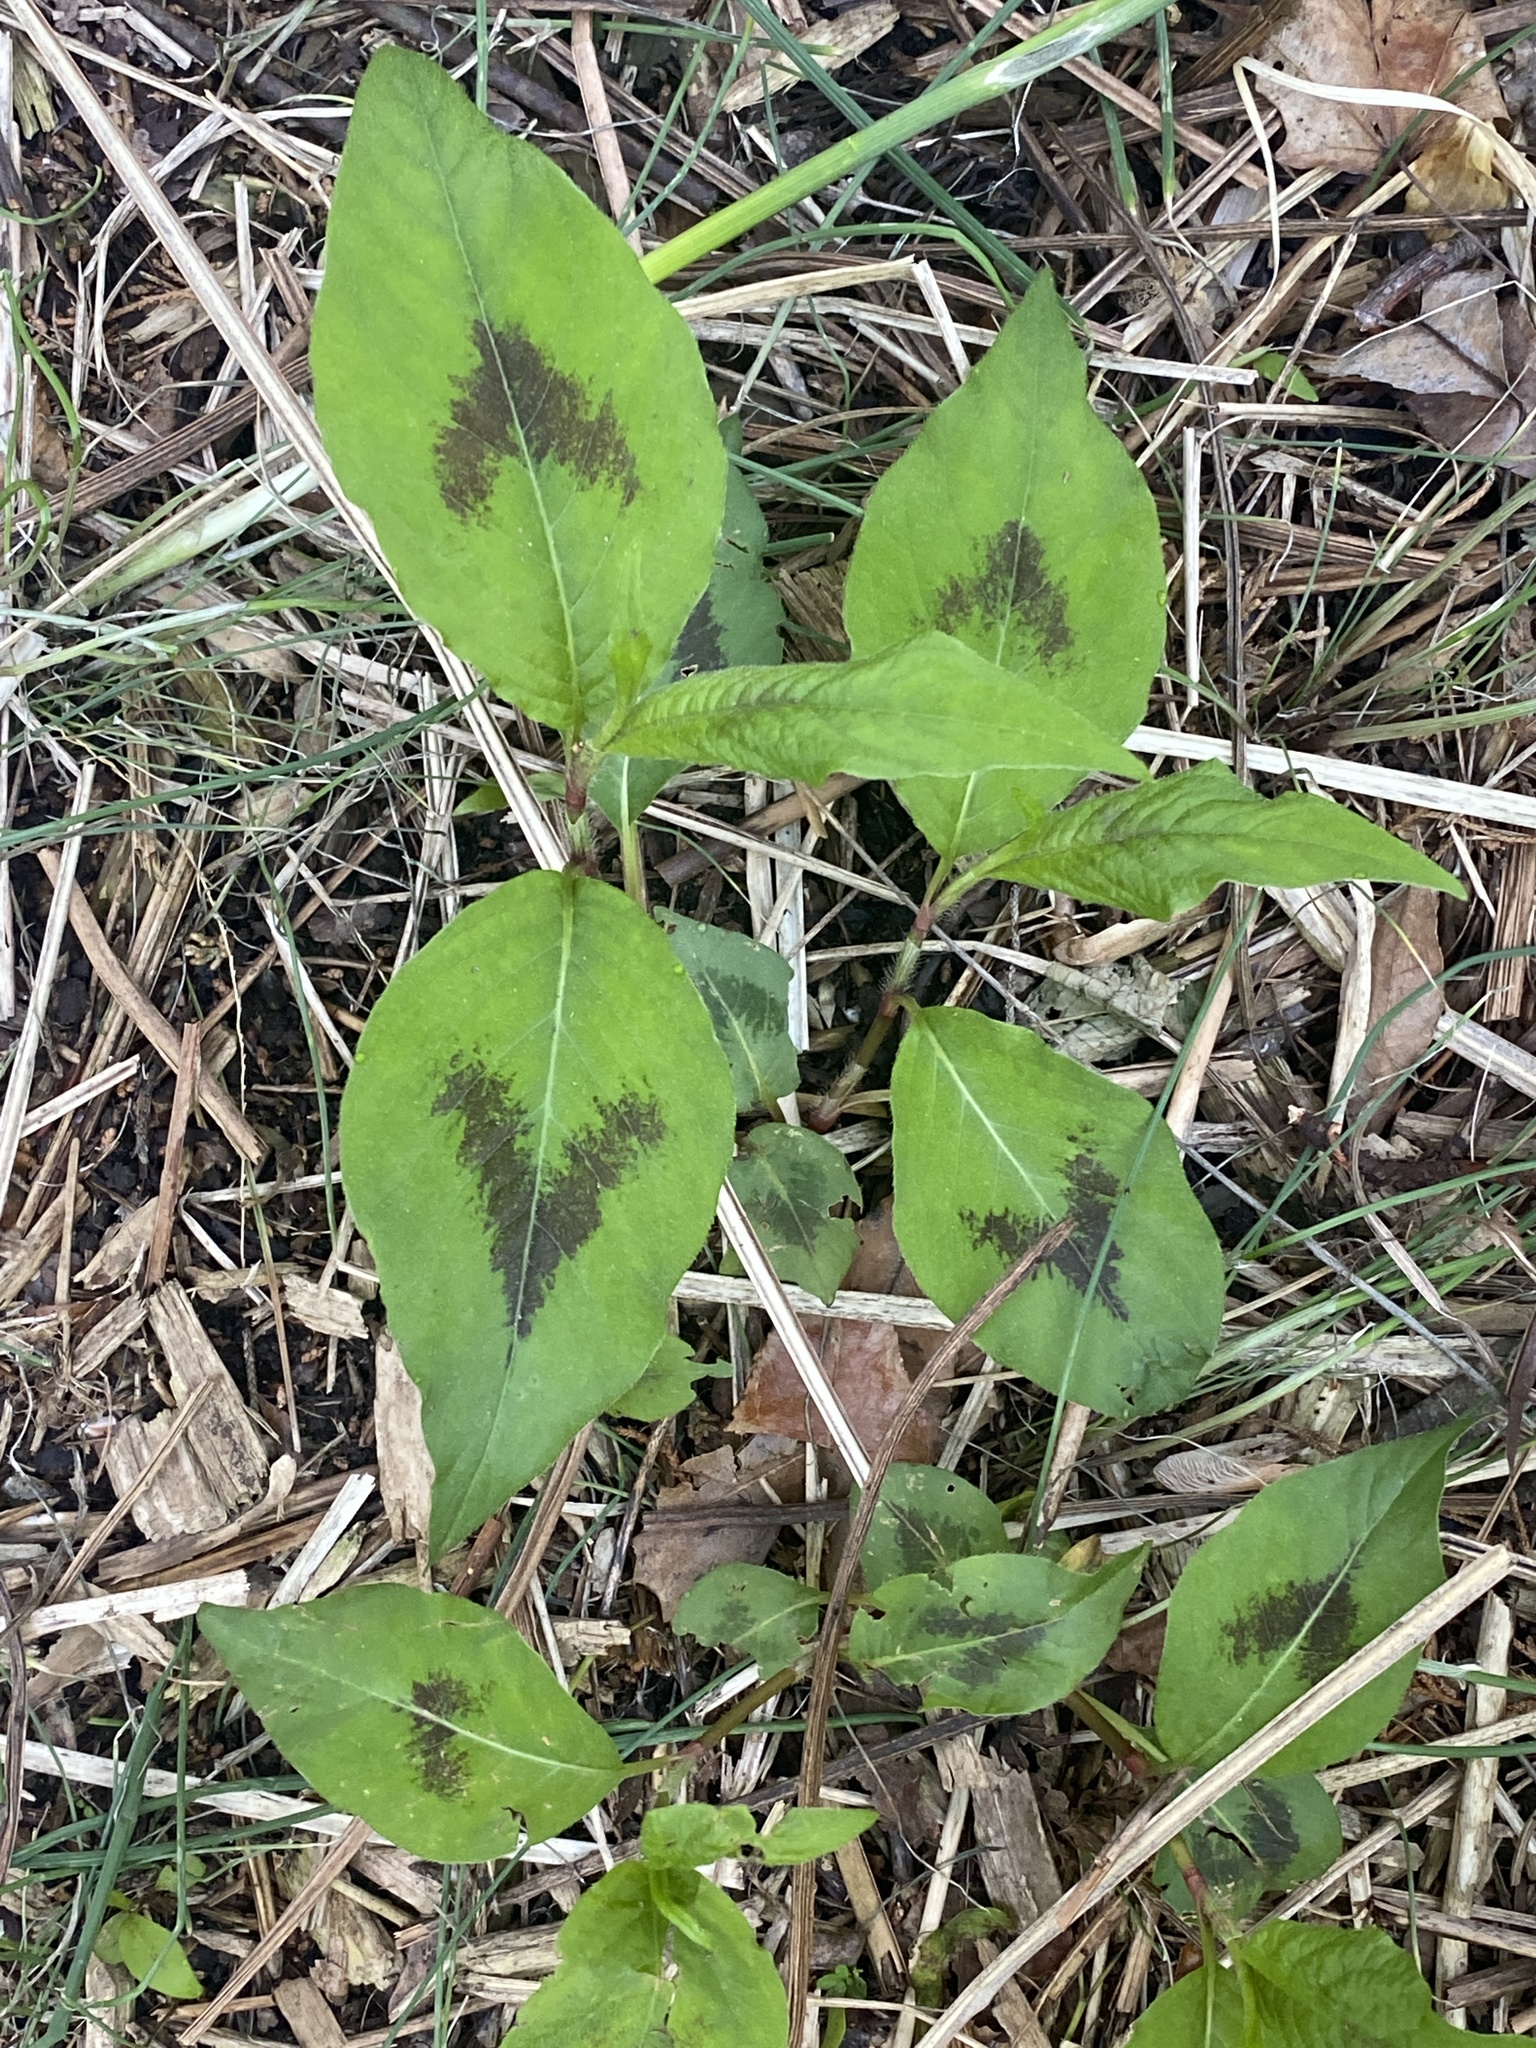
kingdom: Plantae
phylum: Tracheophyta
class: Magnoliopsida
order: Caryophyllales
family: Polygonaceae
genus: Persicaria
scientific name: Persicaria virginiana
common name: Jumpseed
